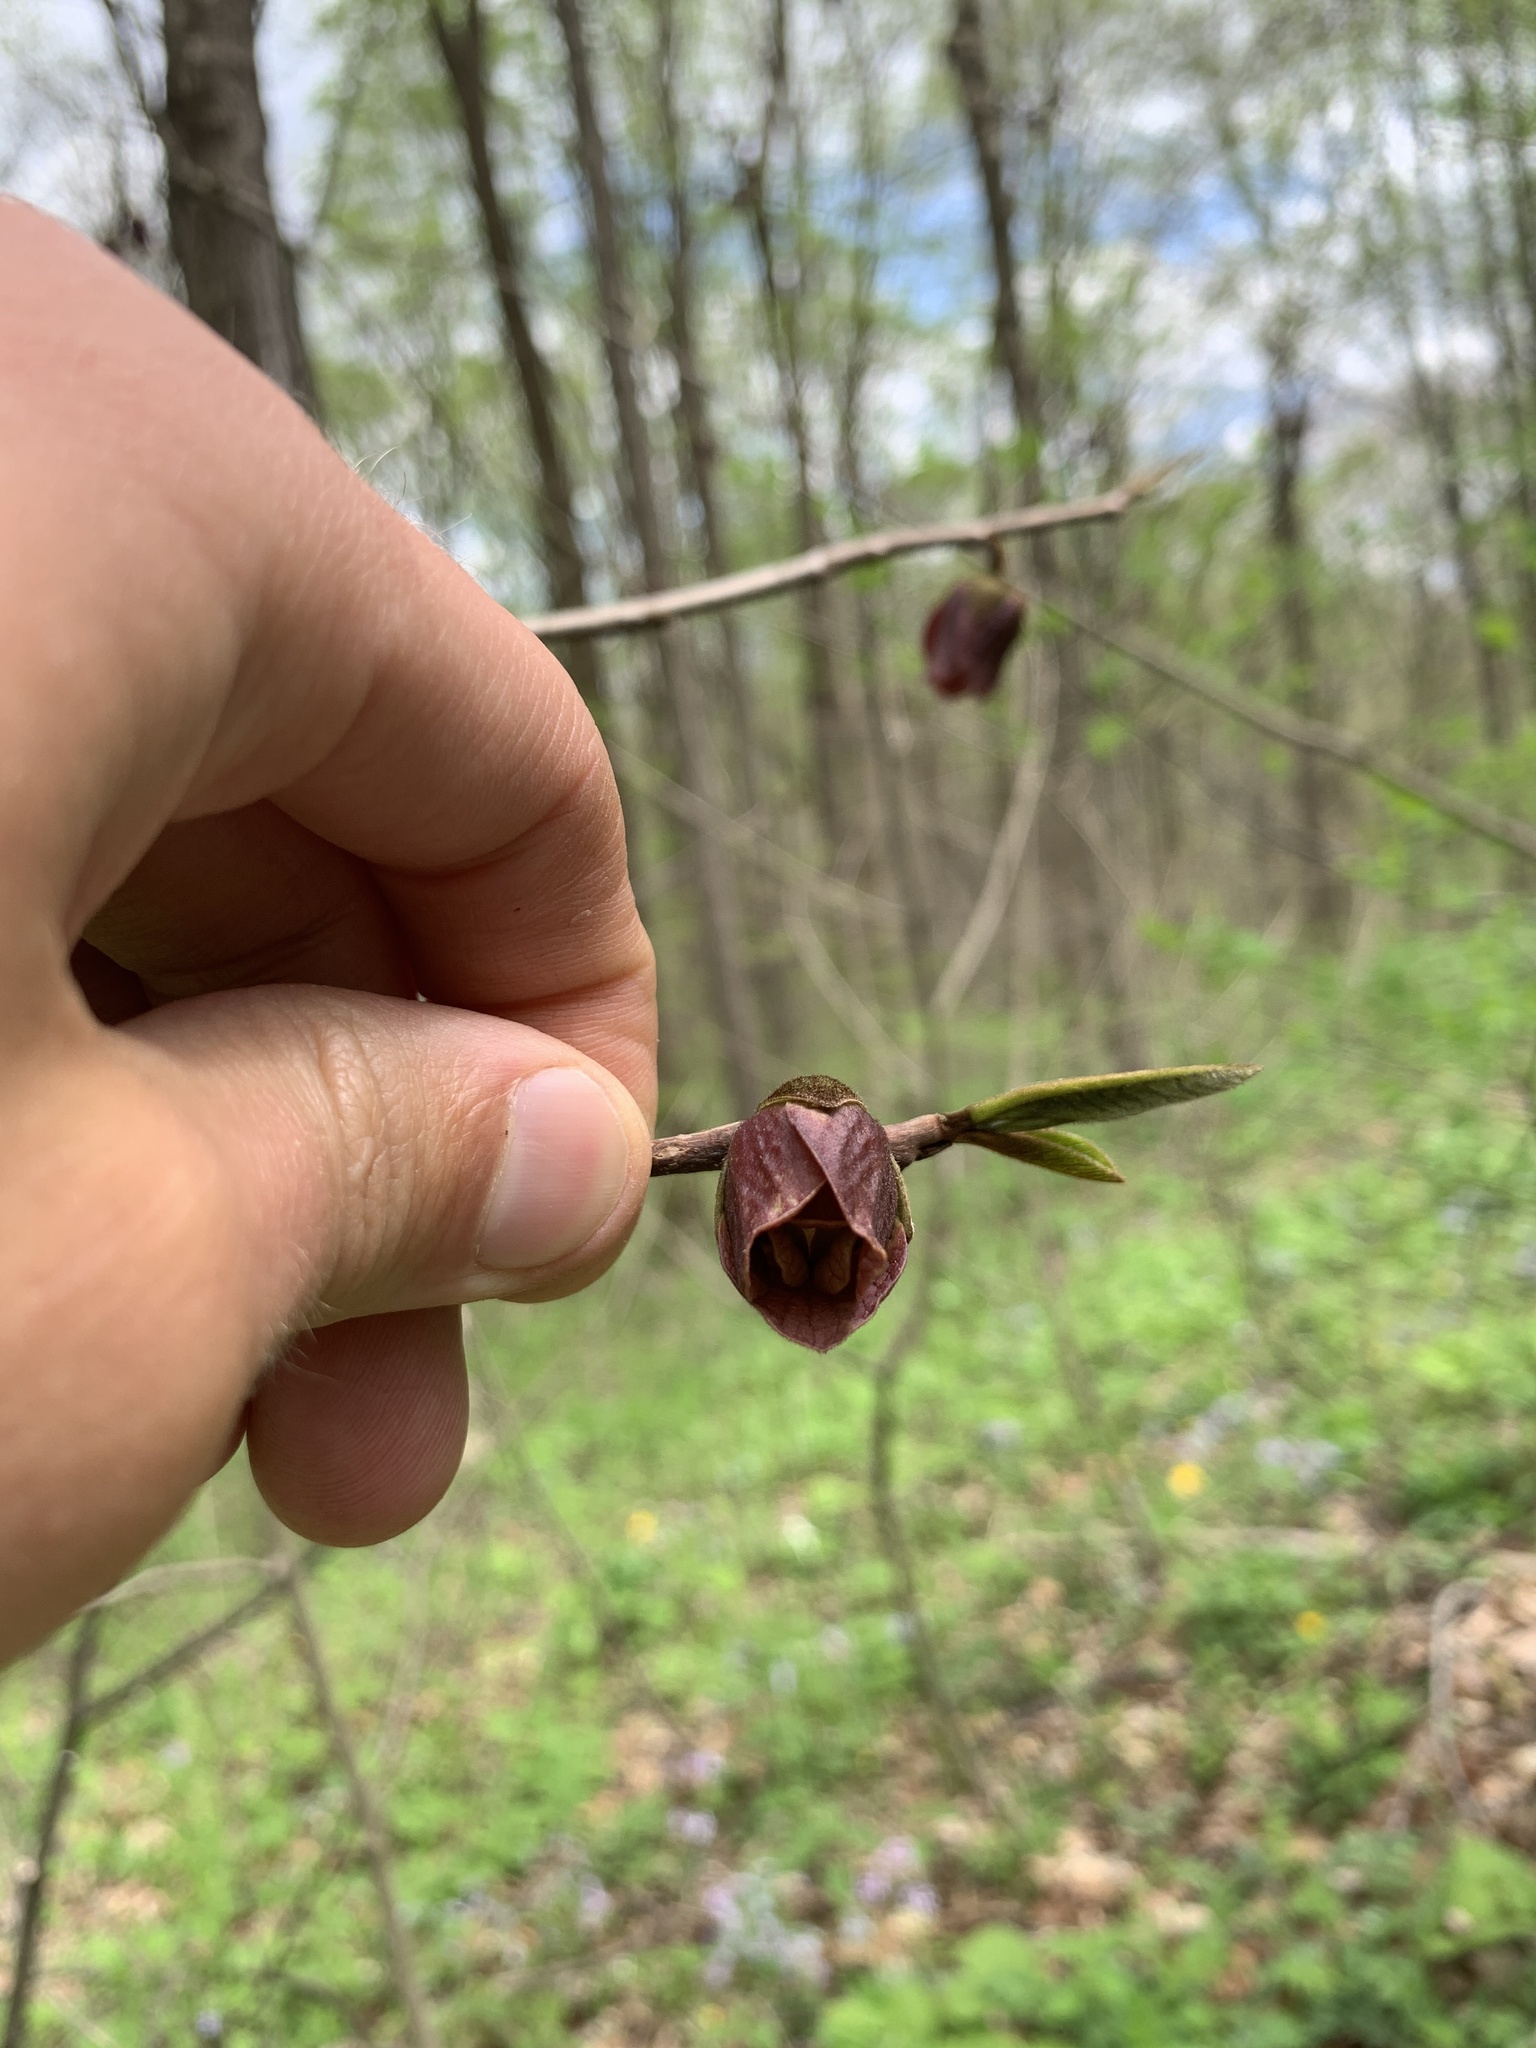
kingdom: Plantae
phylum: Tracheophyta
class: Magnoliopsida
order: Magnoliales
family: Annonaceae
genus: Asimina
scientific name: Asimina triloba
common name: Dog-banana
